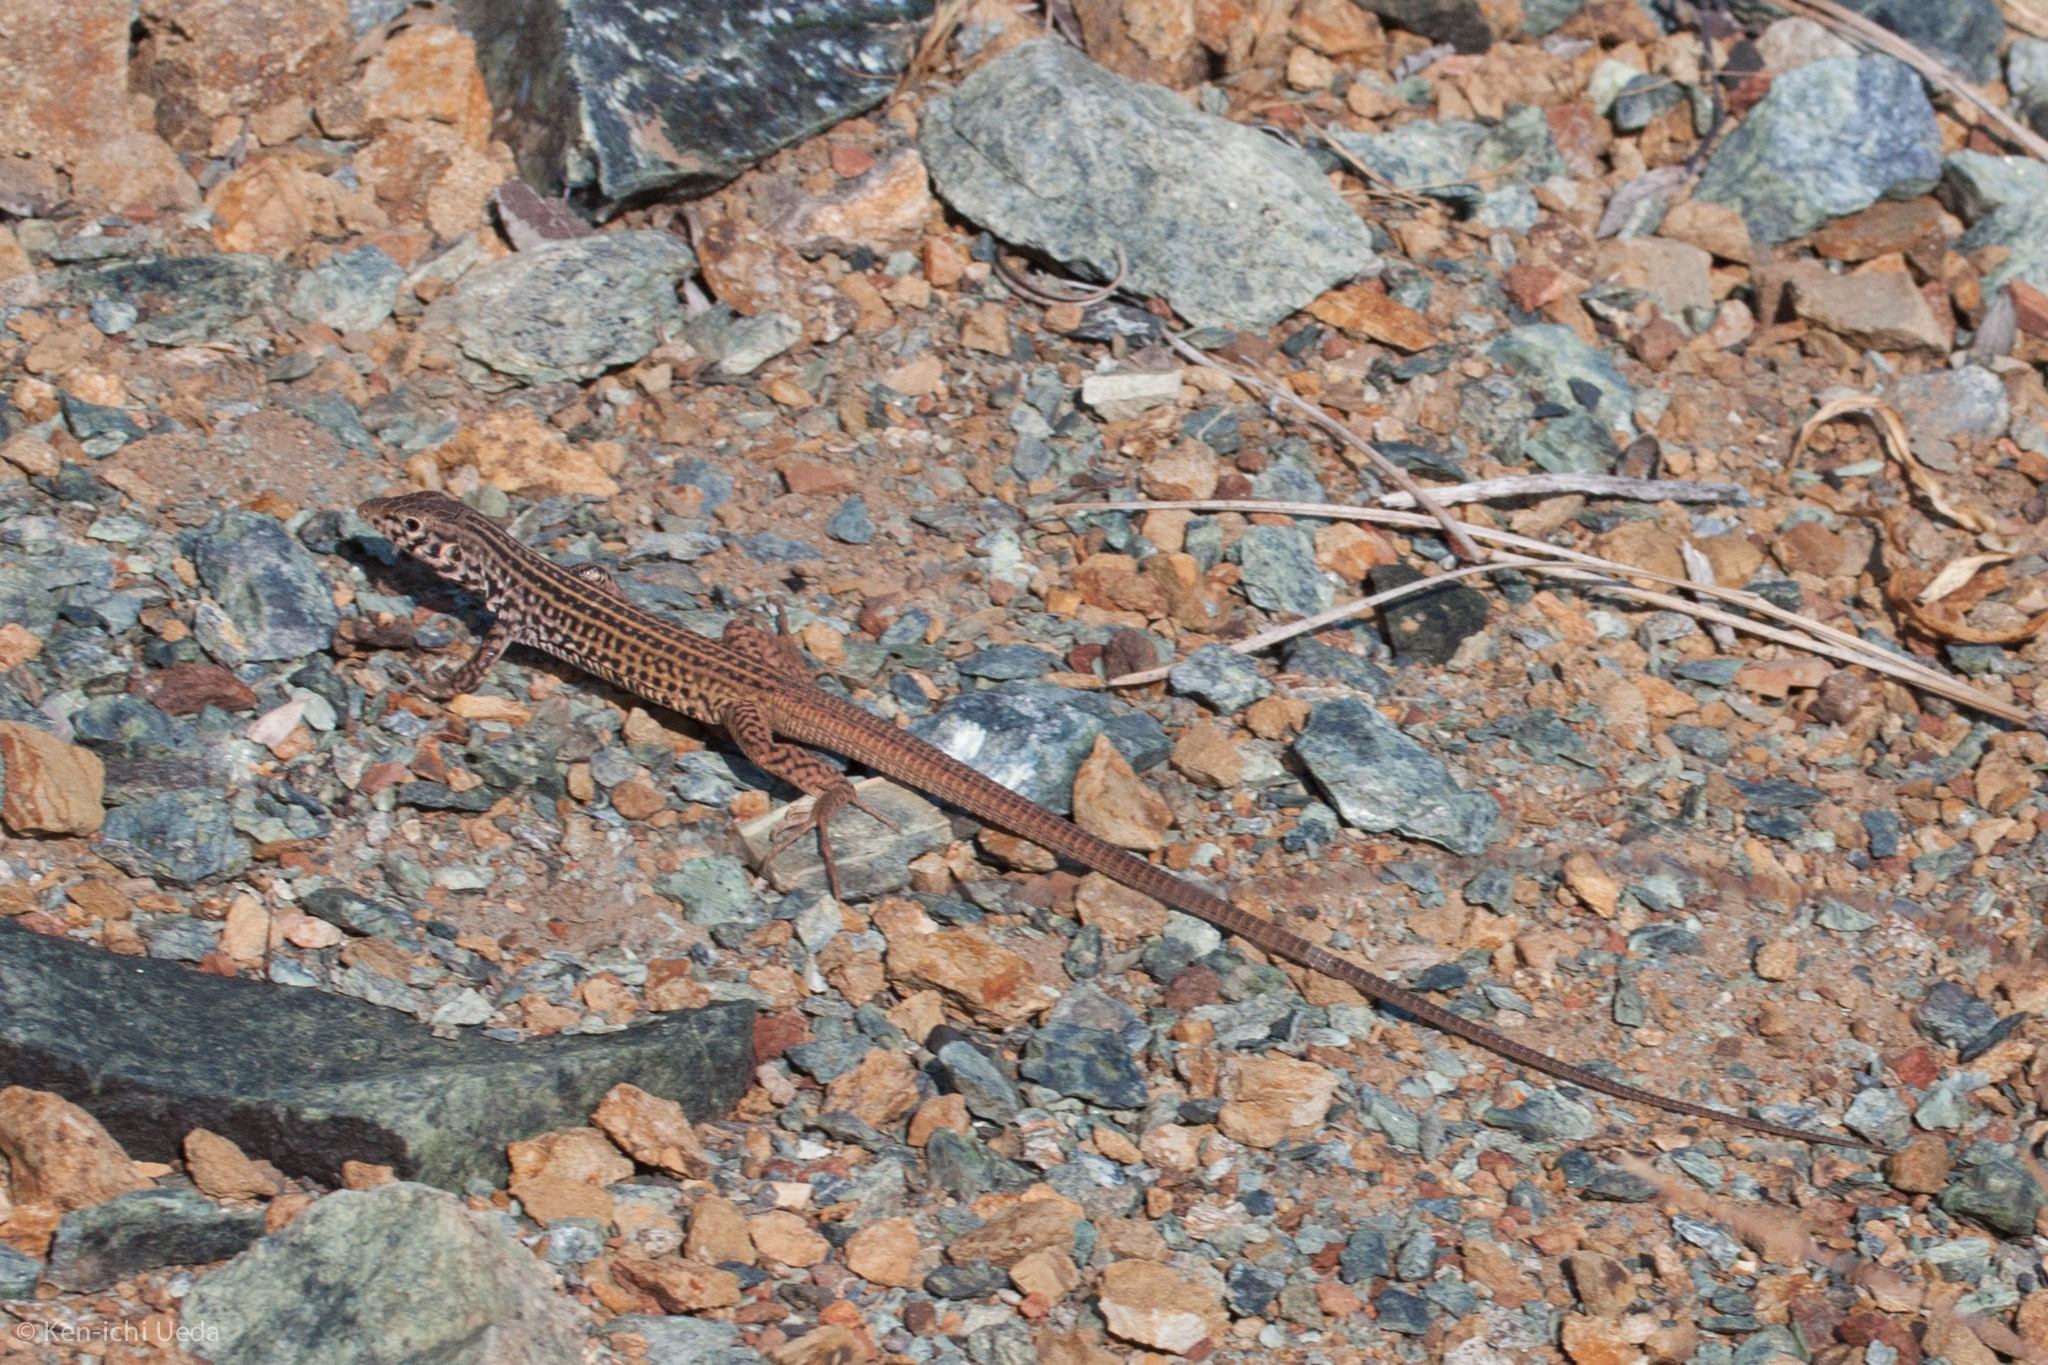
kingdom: Animalia
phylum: Chordata
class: Squamata
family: Teiidae
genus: Aspidoscelis
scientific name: Aspidoscelis tigris
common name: Tiger whiptail
